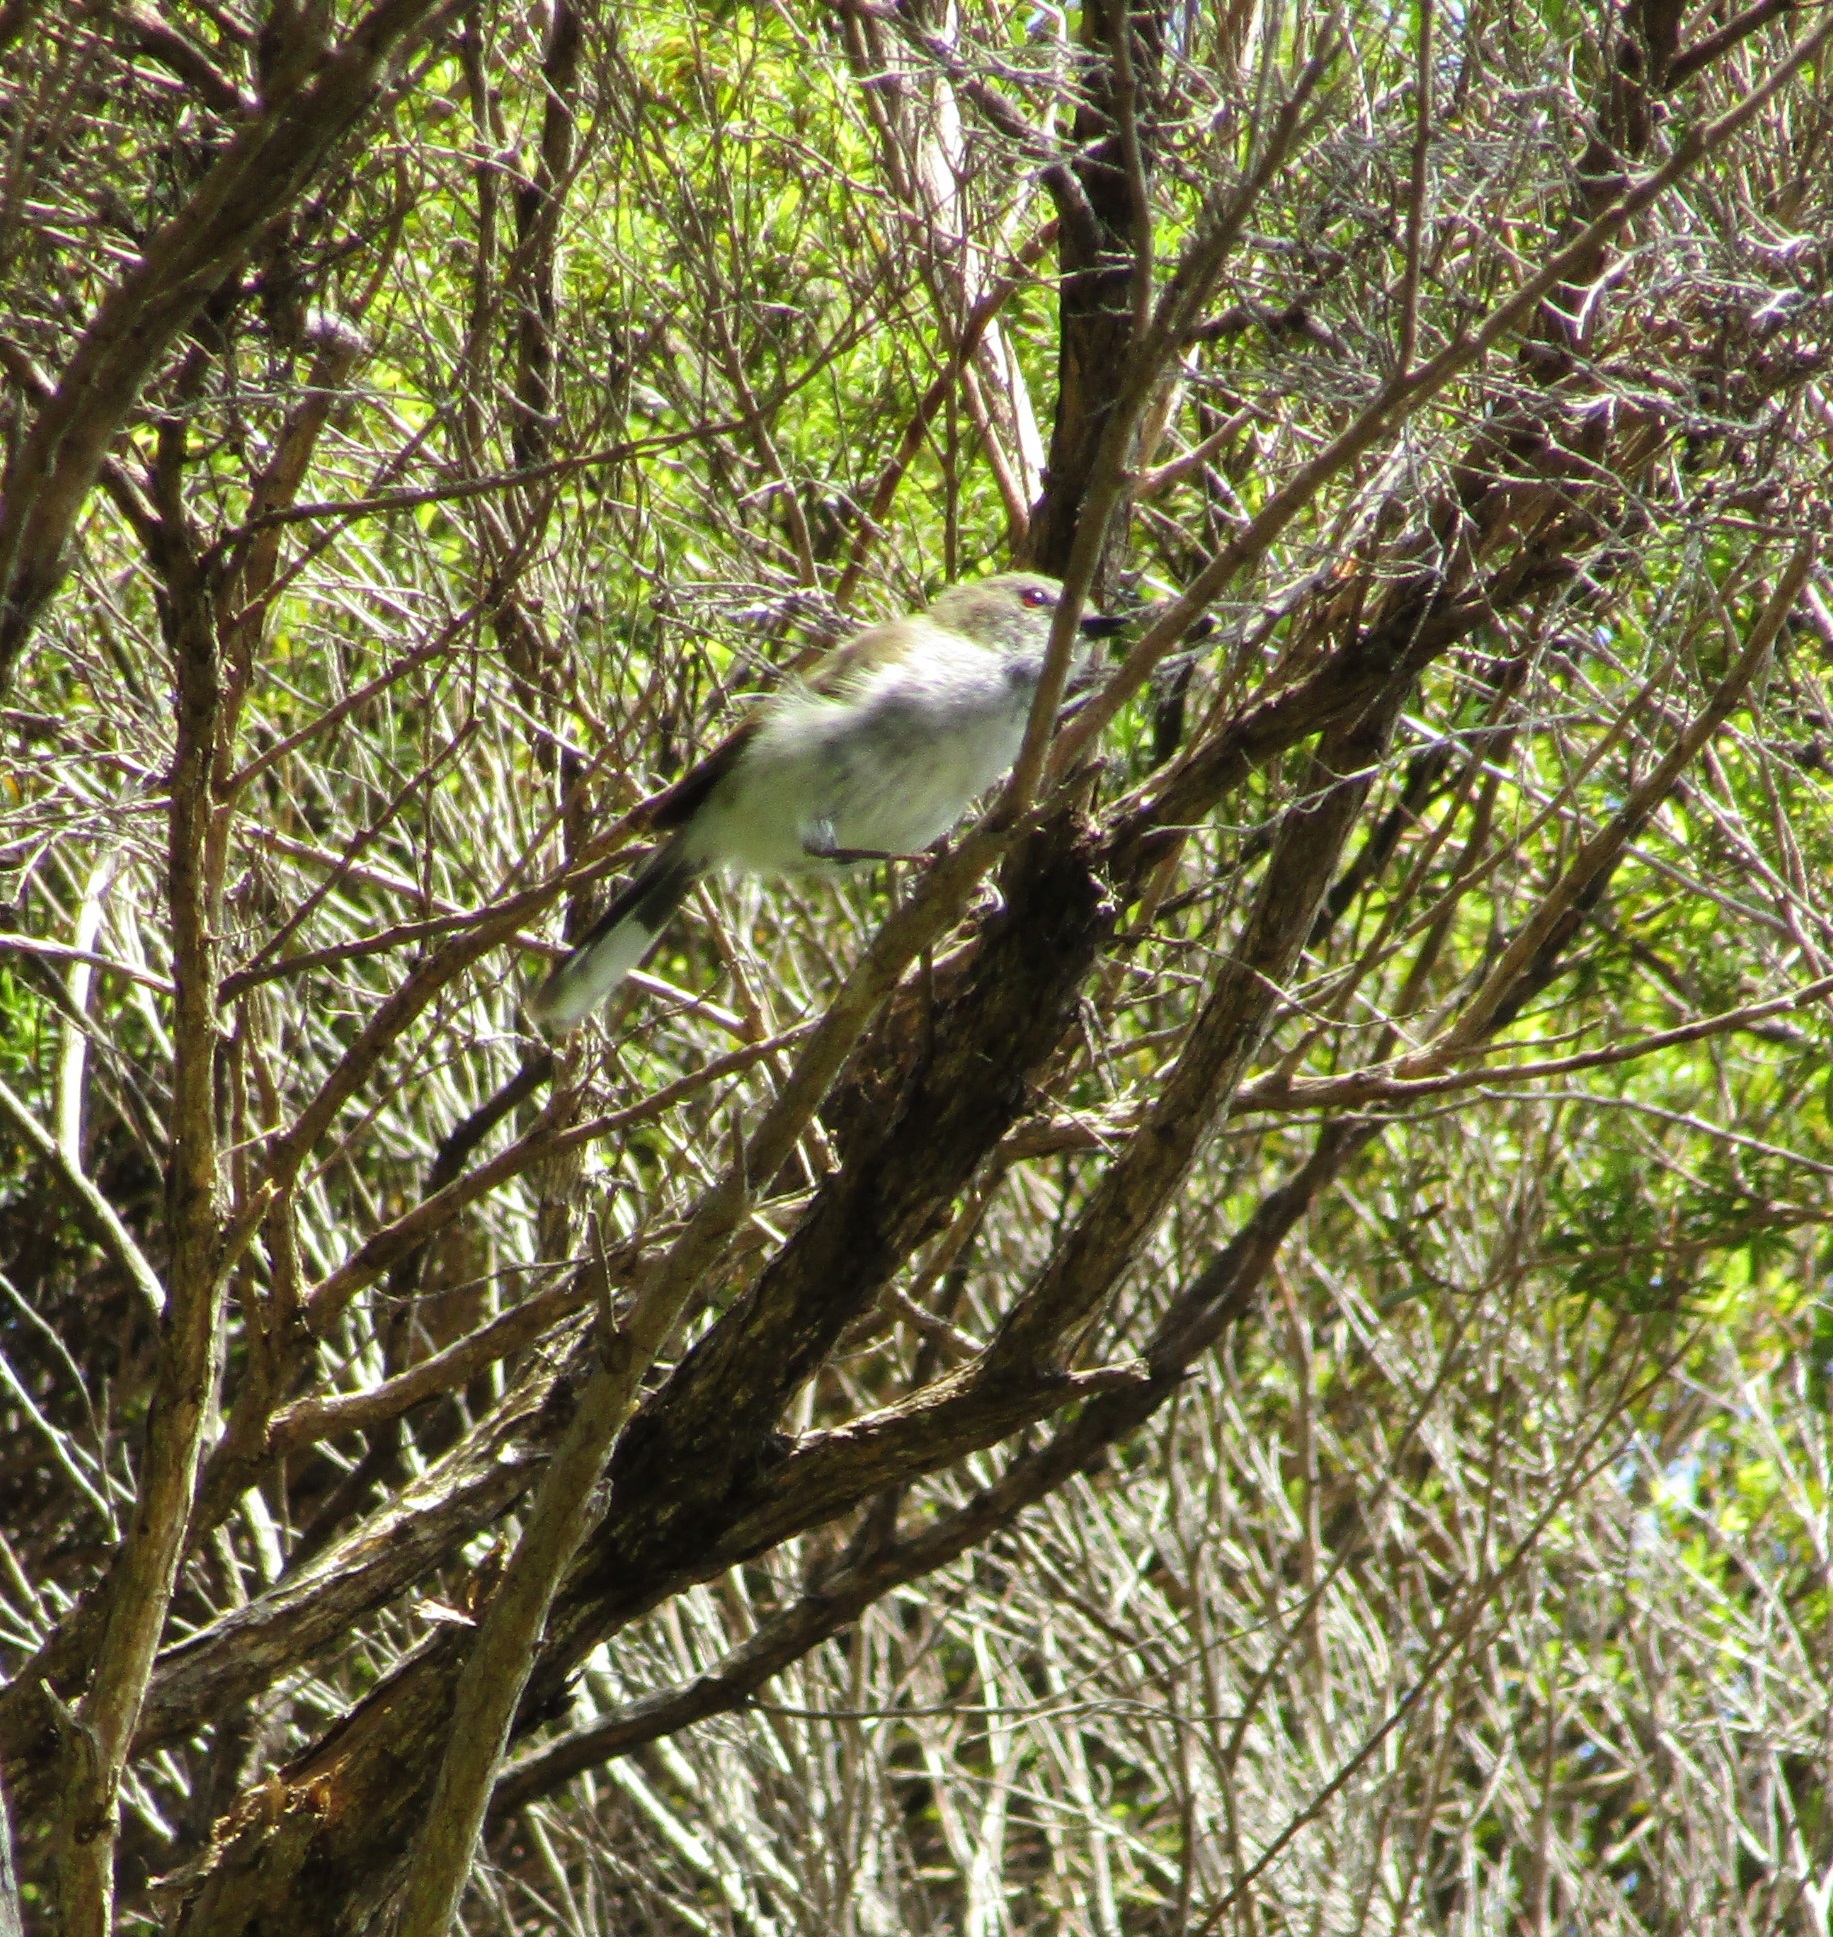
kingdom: Animalia
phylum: Chordata
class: Aves
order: Passeriformes
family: Acanthizidae
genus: Gerygone
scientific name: Gerygone igata
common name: Grey gerygone
